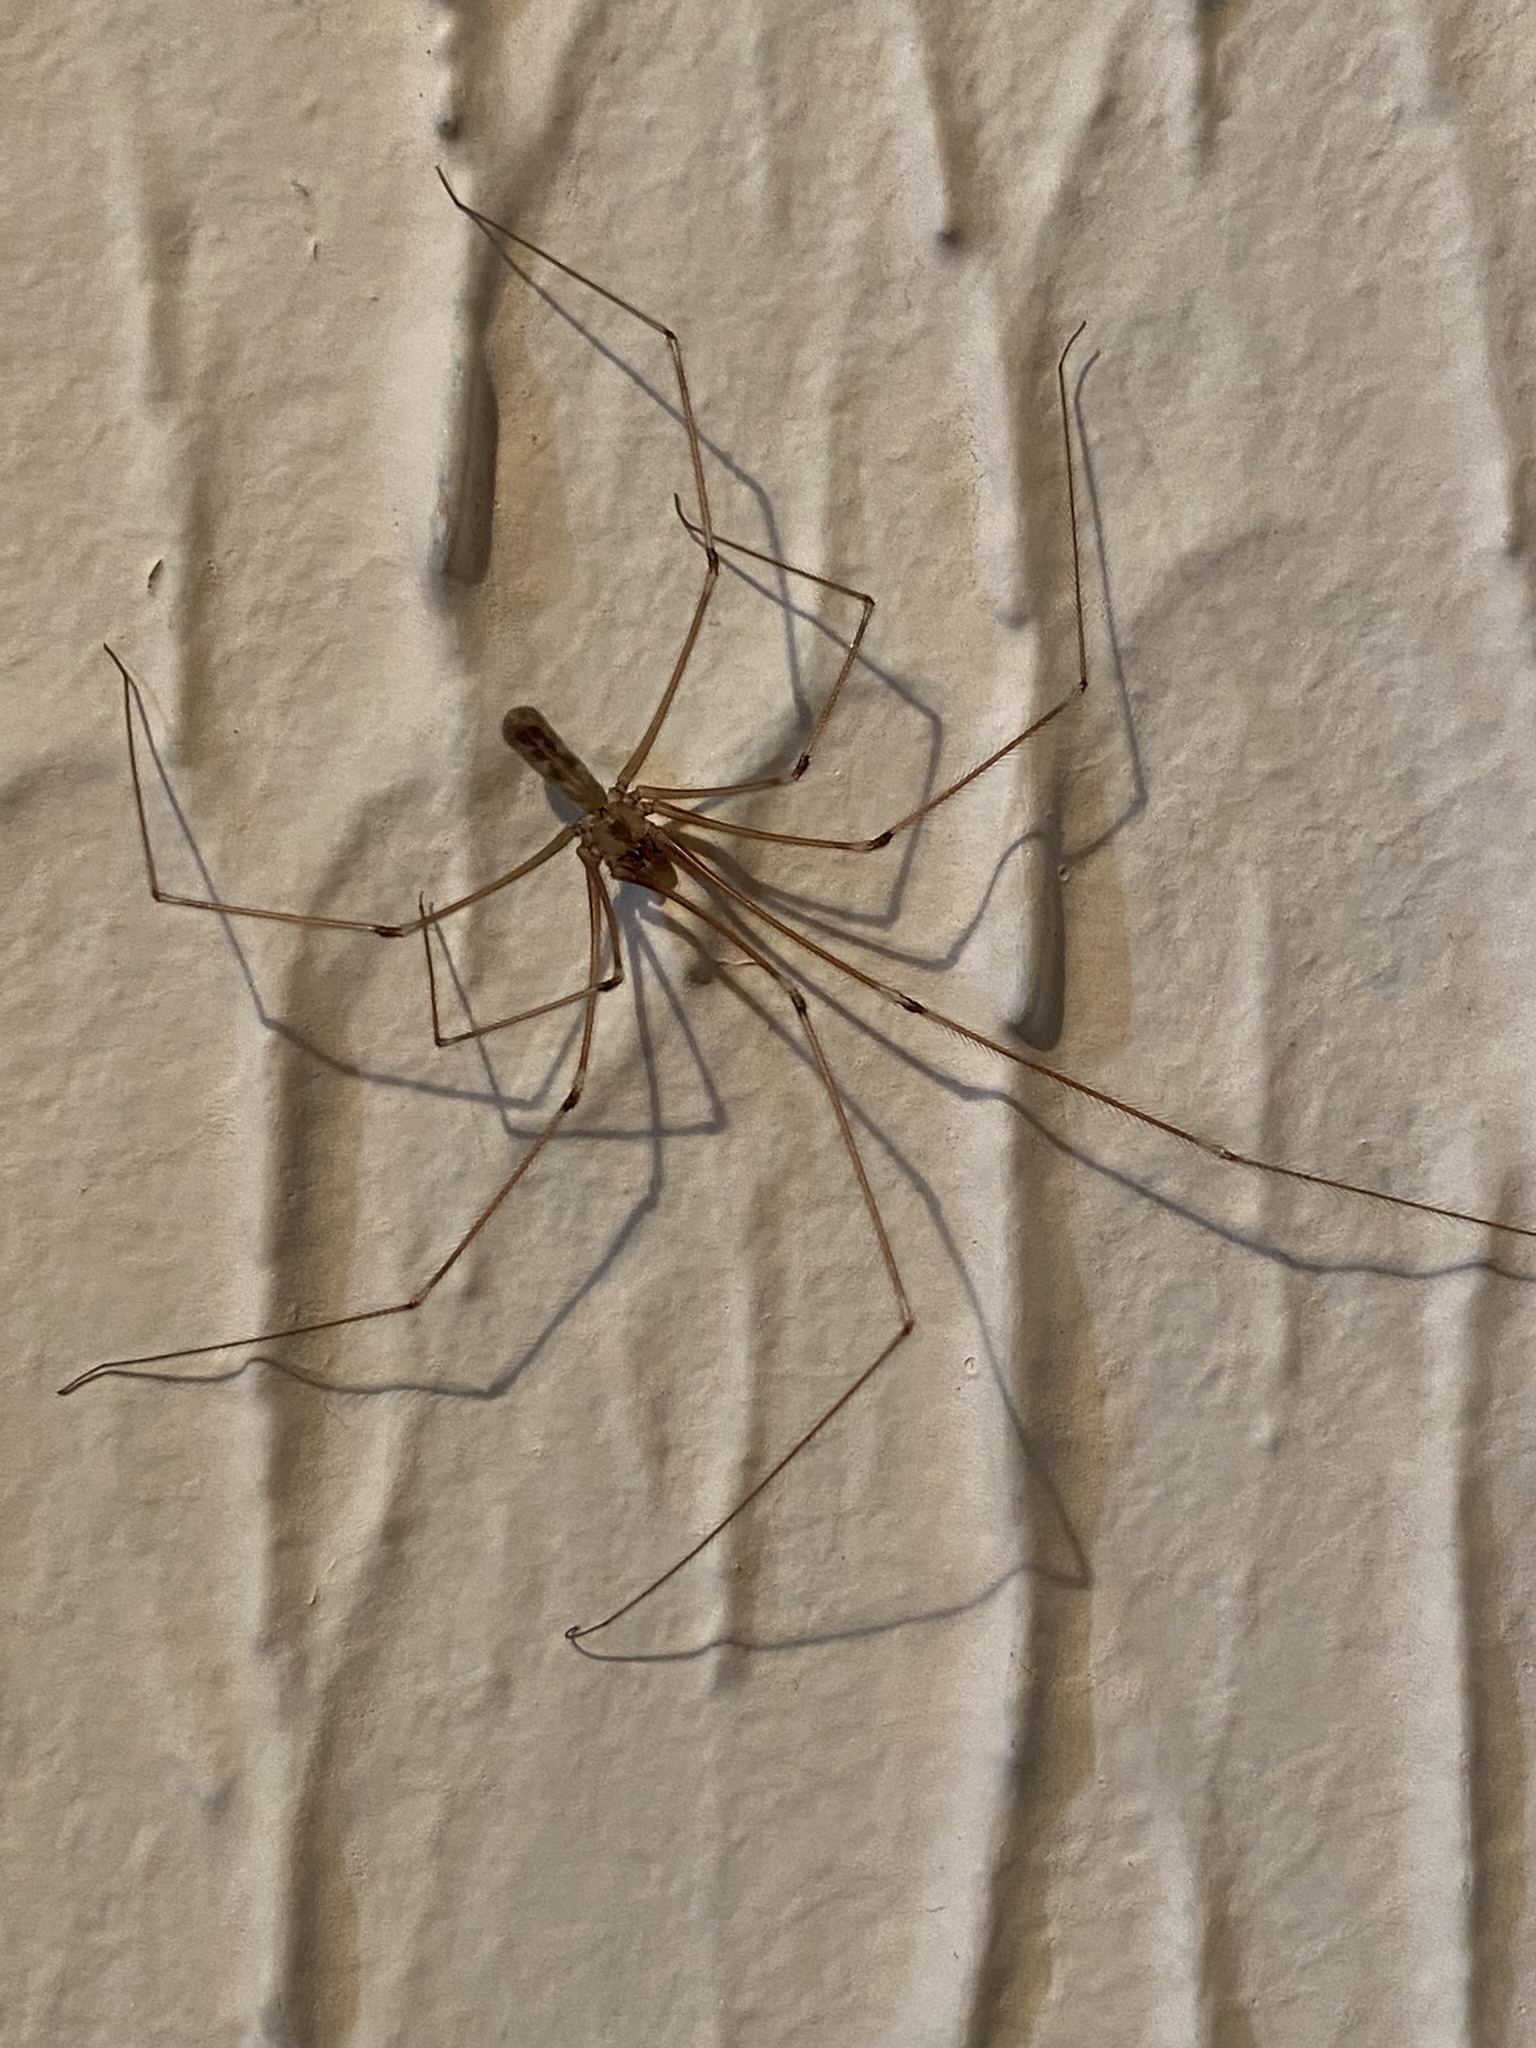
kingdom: Animalia
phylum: Arthropoda
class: Arachnida
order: Araneae
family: Pholcidae
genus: Pholcus
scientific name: Pholcus phalangioides
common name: Longbodied cellar spider
